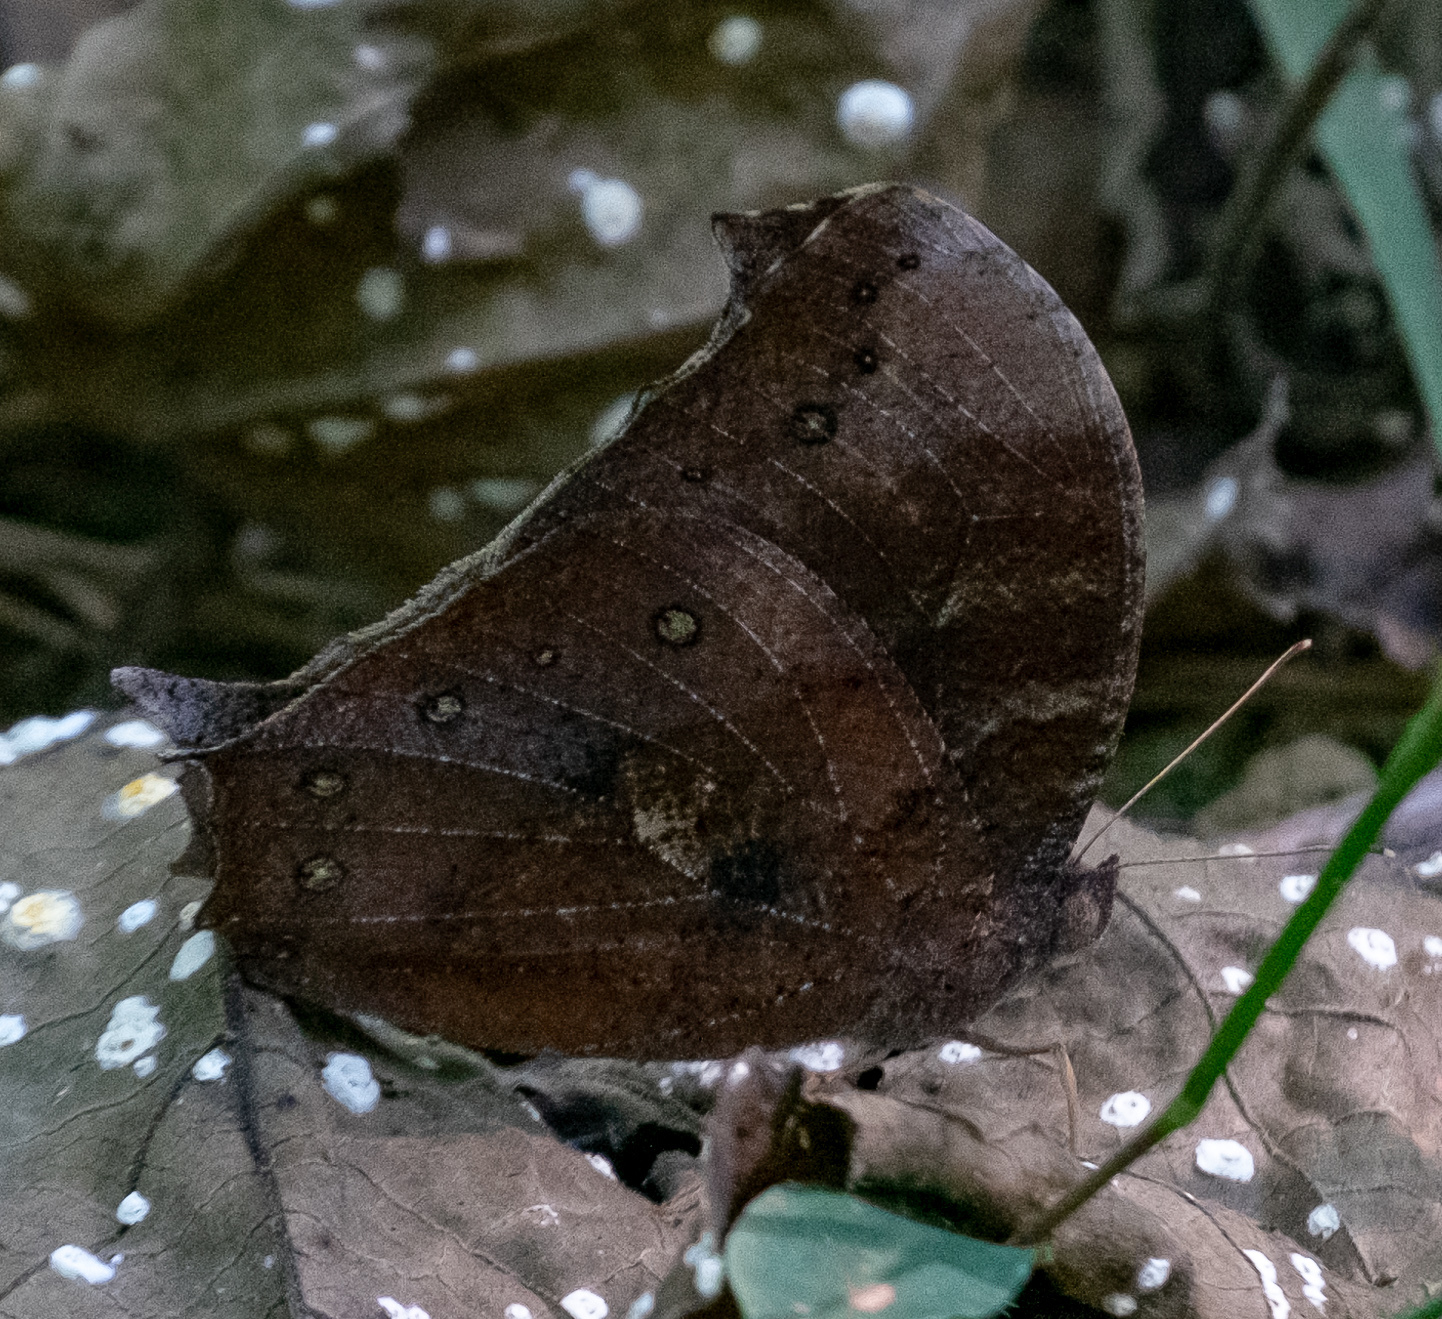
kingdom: Animalia
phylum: Arthropoda
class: Insecta
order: Lepidoptera
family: Nymphalidae
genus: Melanitis
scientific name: Melanitis phedima
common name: Dark evening brown
